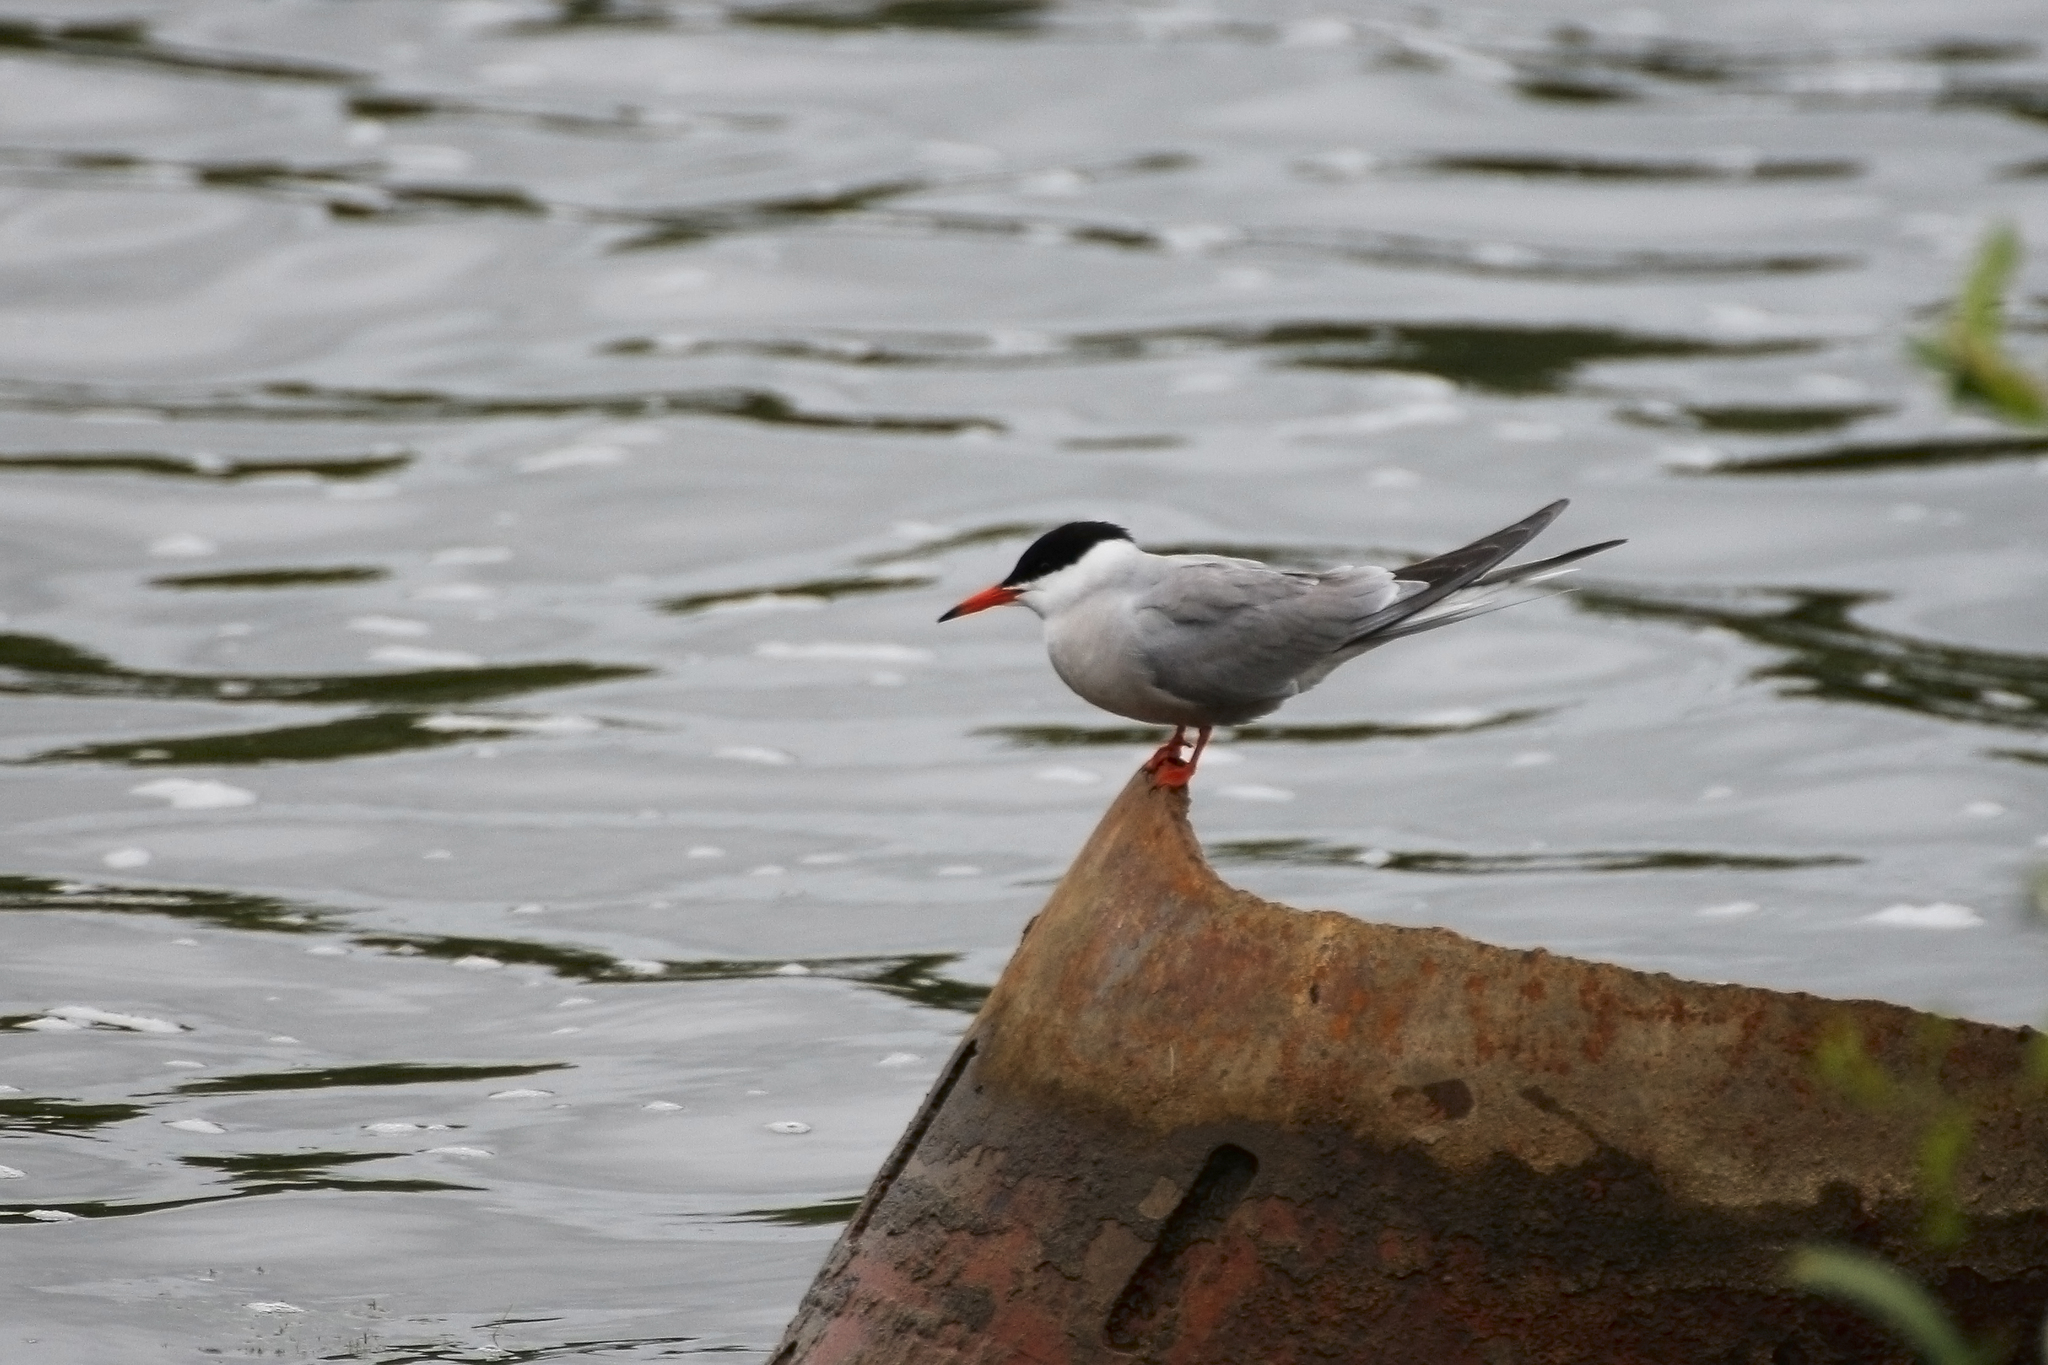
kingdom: Animalia
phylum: Chordata
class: Aves
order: Charadriiformes
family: Laridae
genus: Sterna
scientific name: Sterna hirundo
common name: Common tern
